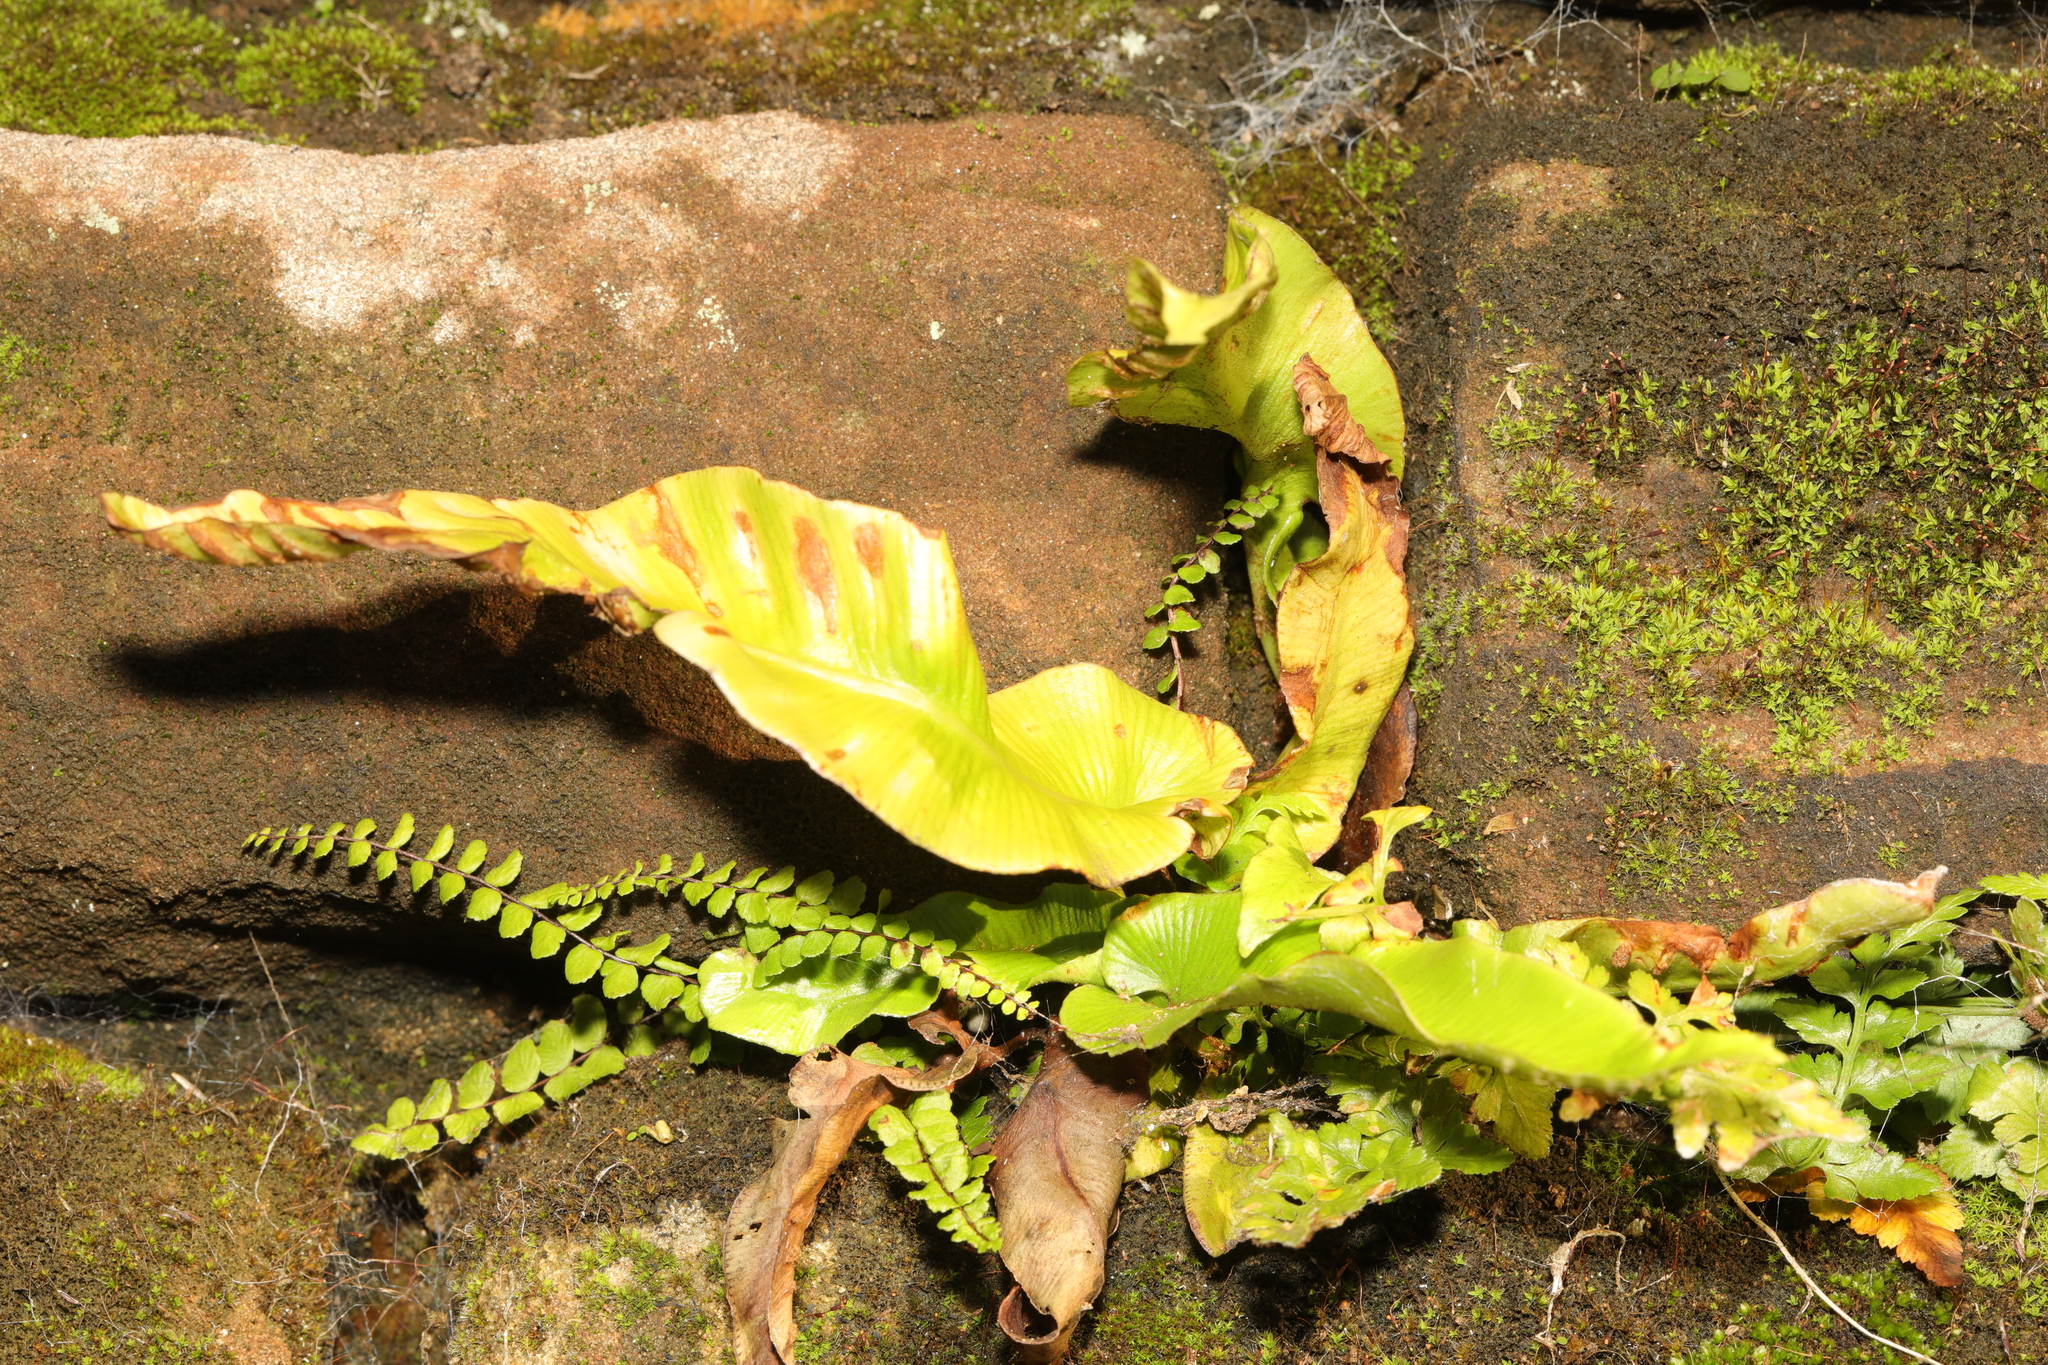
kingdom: Plantae
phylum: Tracheophyta
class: Polypodiopsida
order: Polypodiales
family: Aspleniaceae
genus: Asplenium
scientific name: Asplenium scolopendrium
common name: Hart's-tongue fern
